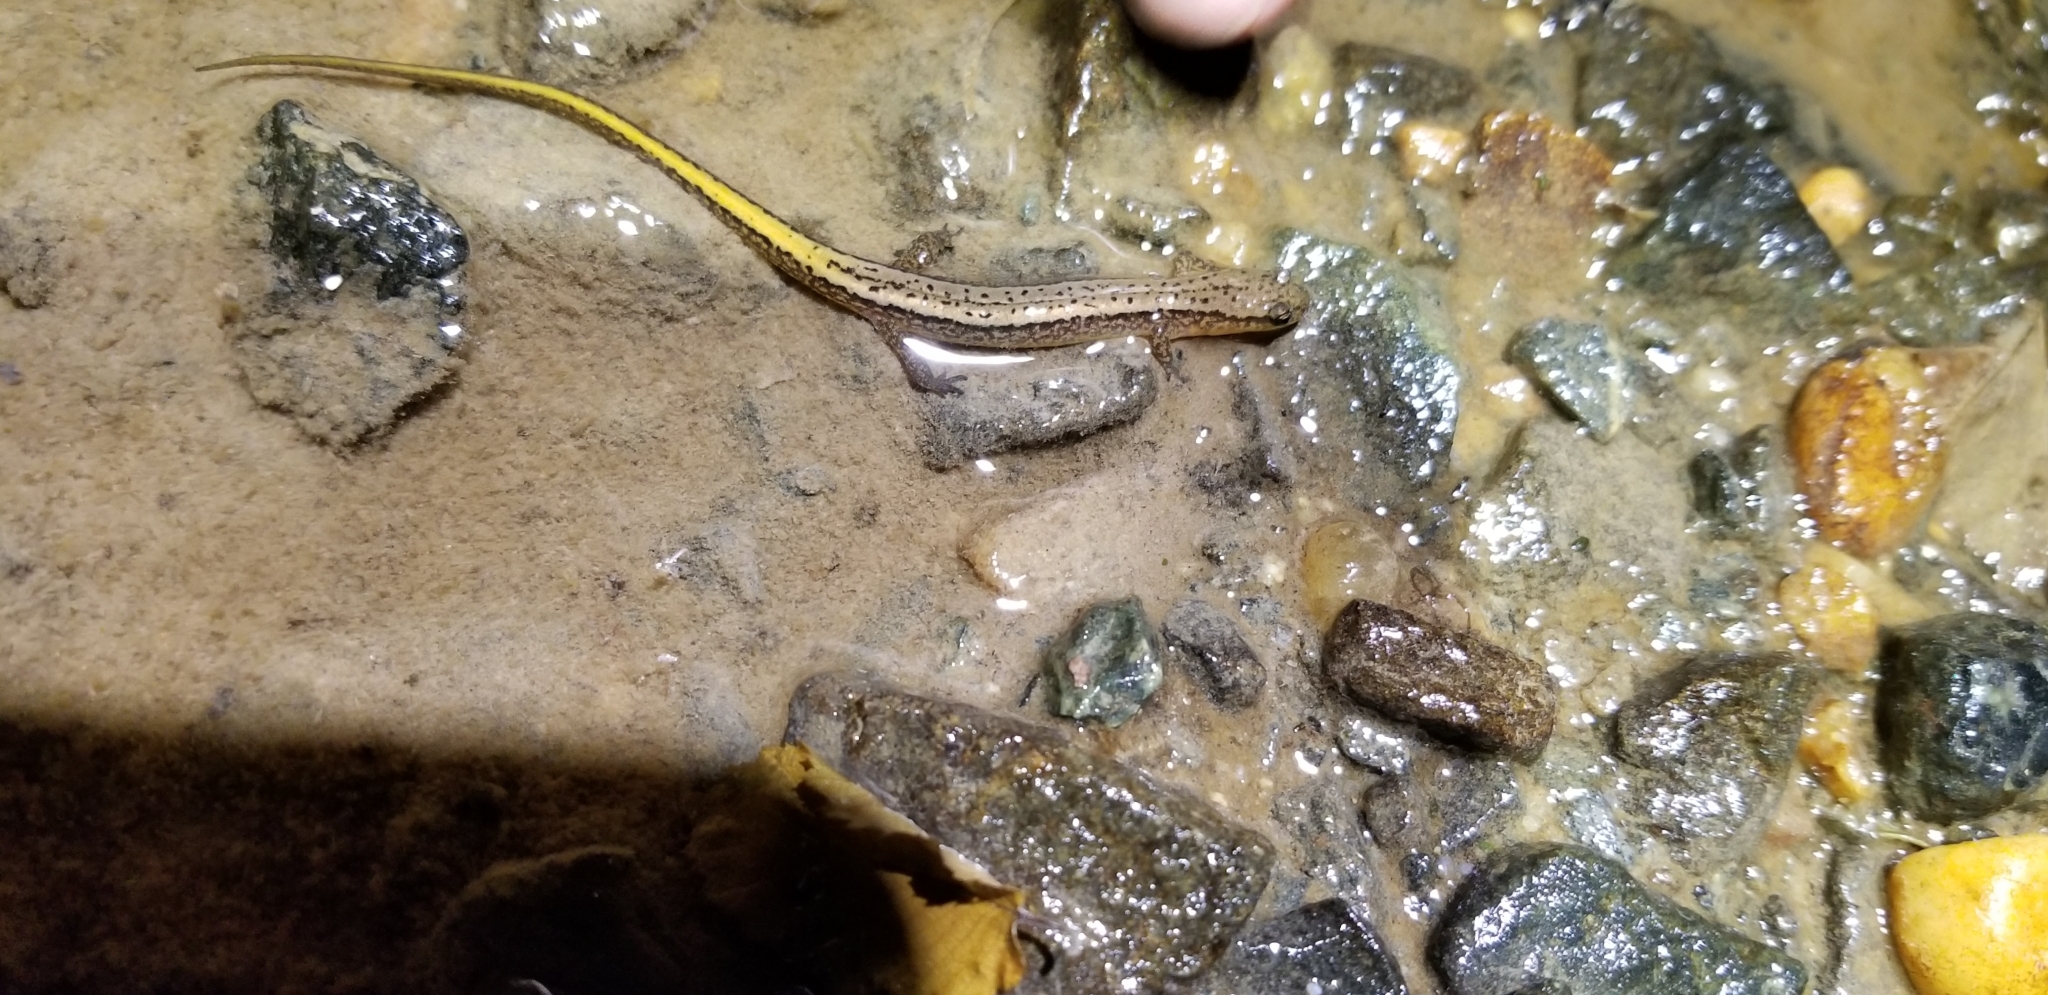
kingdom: Animalia
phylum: Chordata
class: Amphibia
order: Caudata
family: Plethodontidae
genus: Eurycea
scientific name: Eurycea bislineata
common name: Northern two-lined salamander
